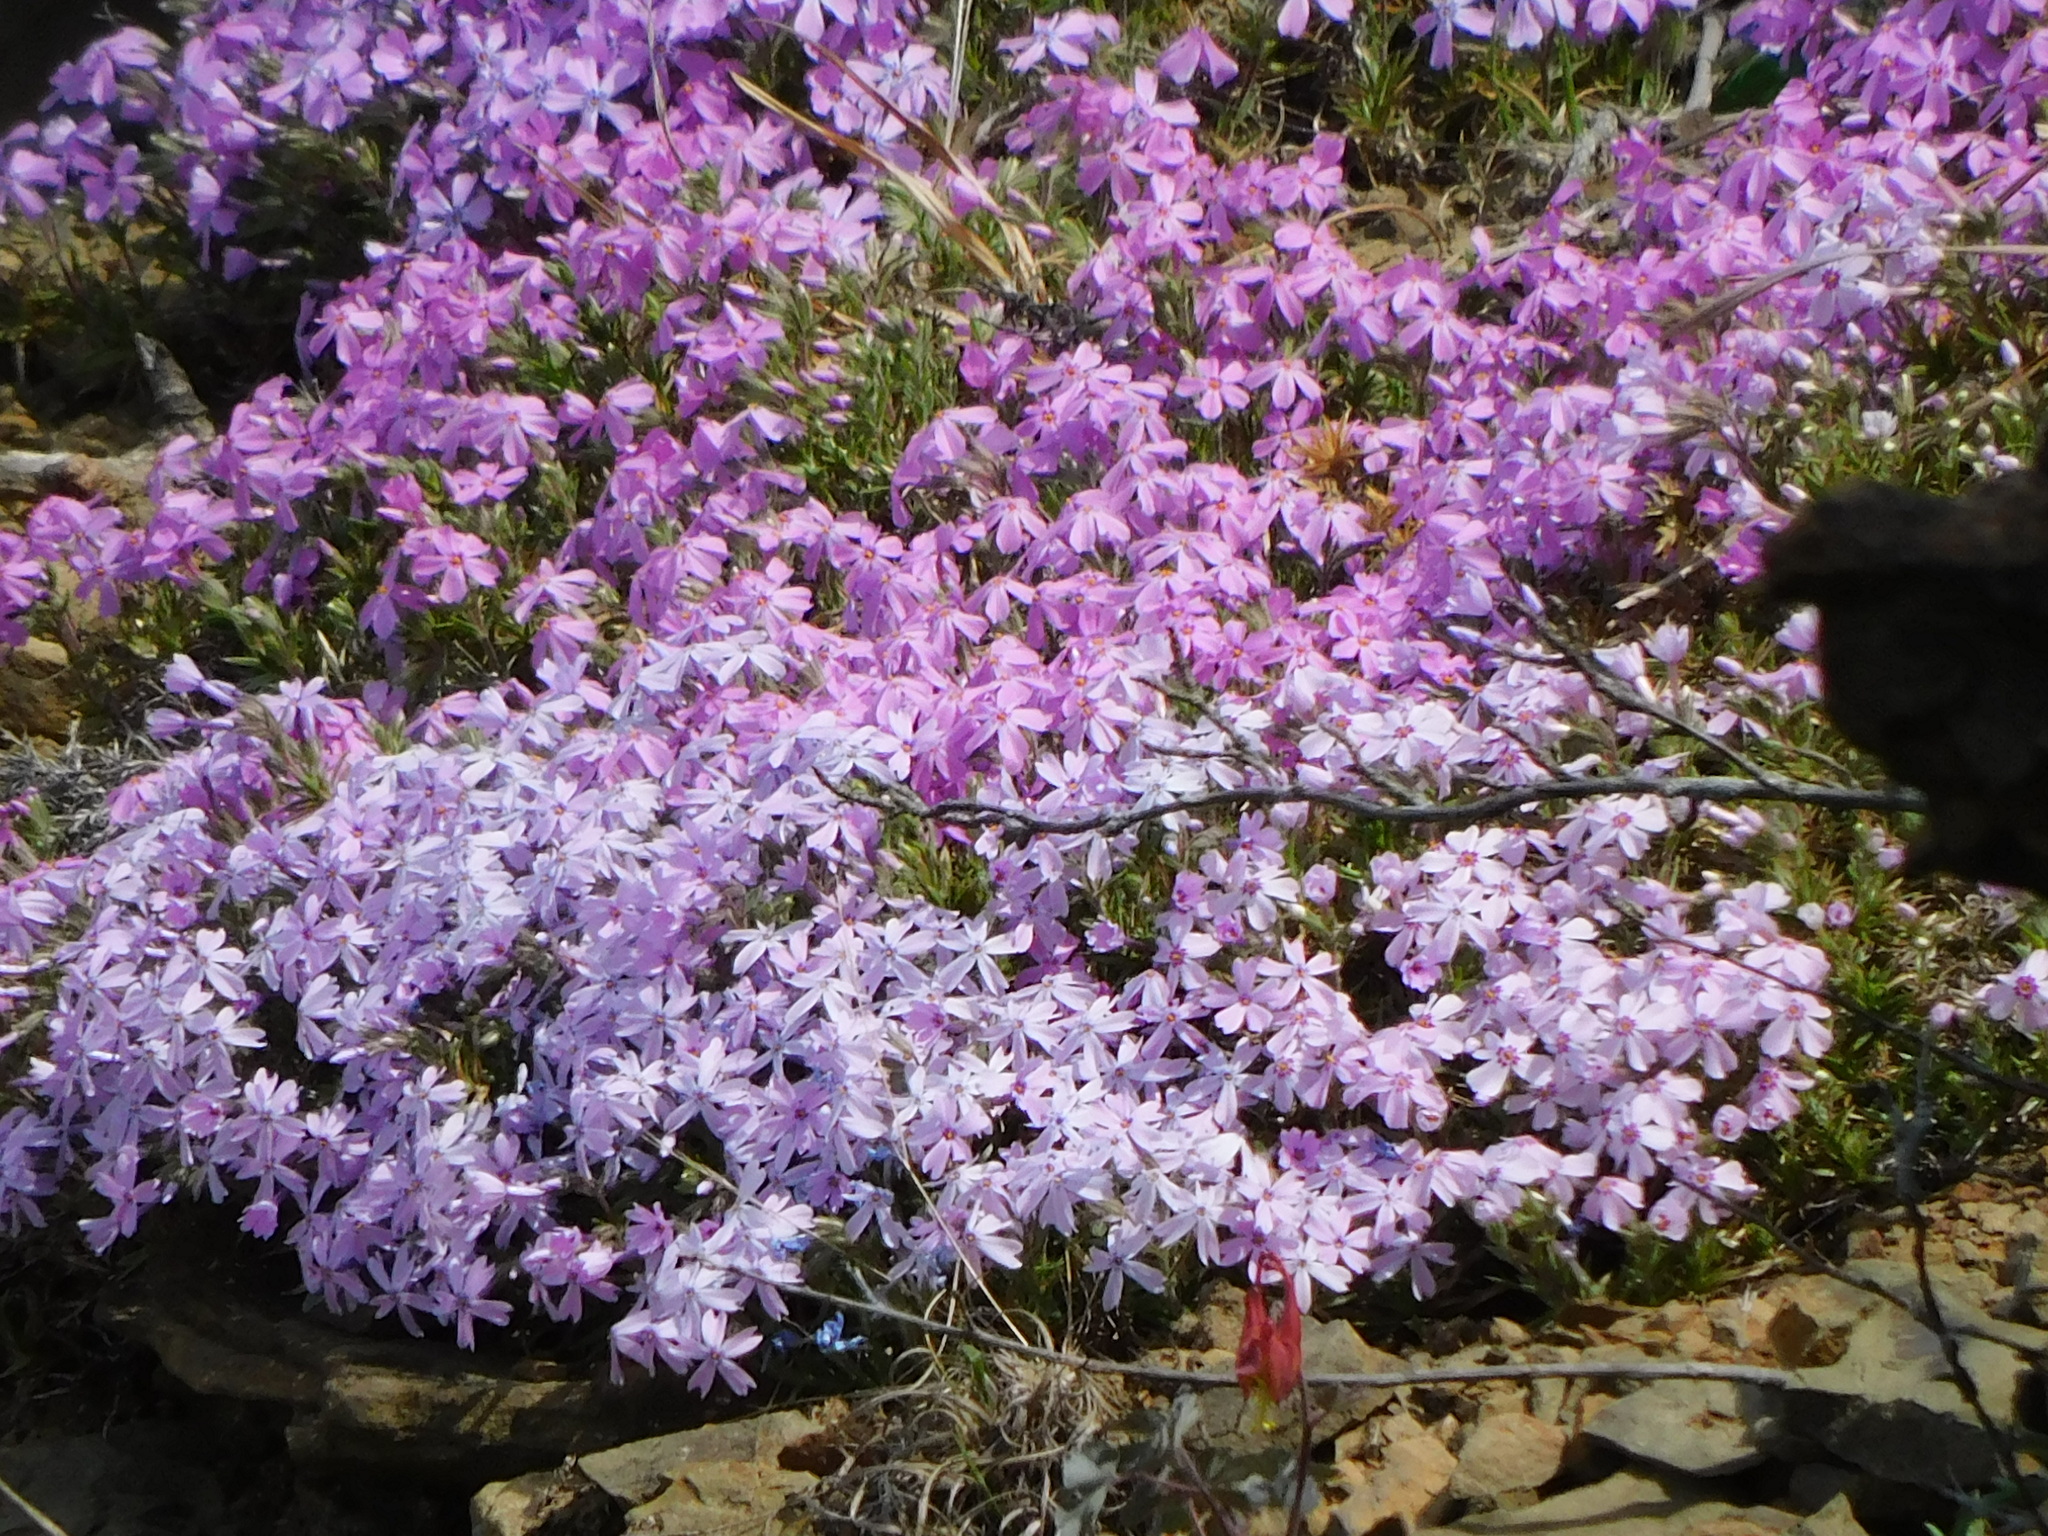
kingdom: Plantae
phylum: Tracheophyta
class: Magnoliopsida
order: Ericales
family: Polemoniaceae
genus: Phlox
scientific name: Phlox subulata
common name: Moss phlox
